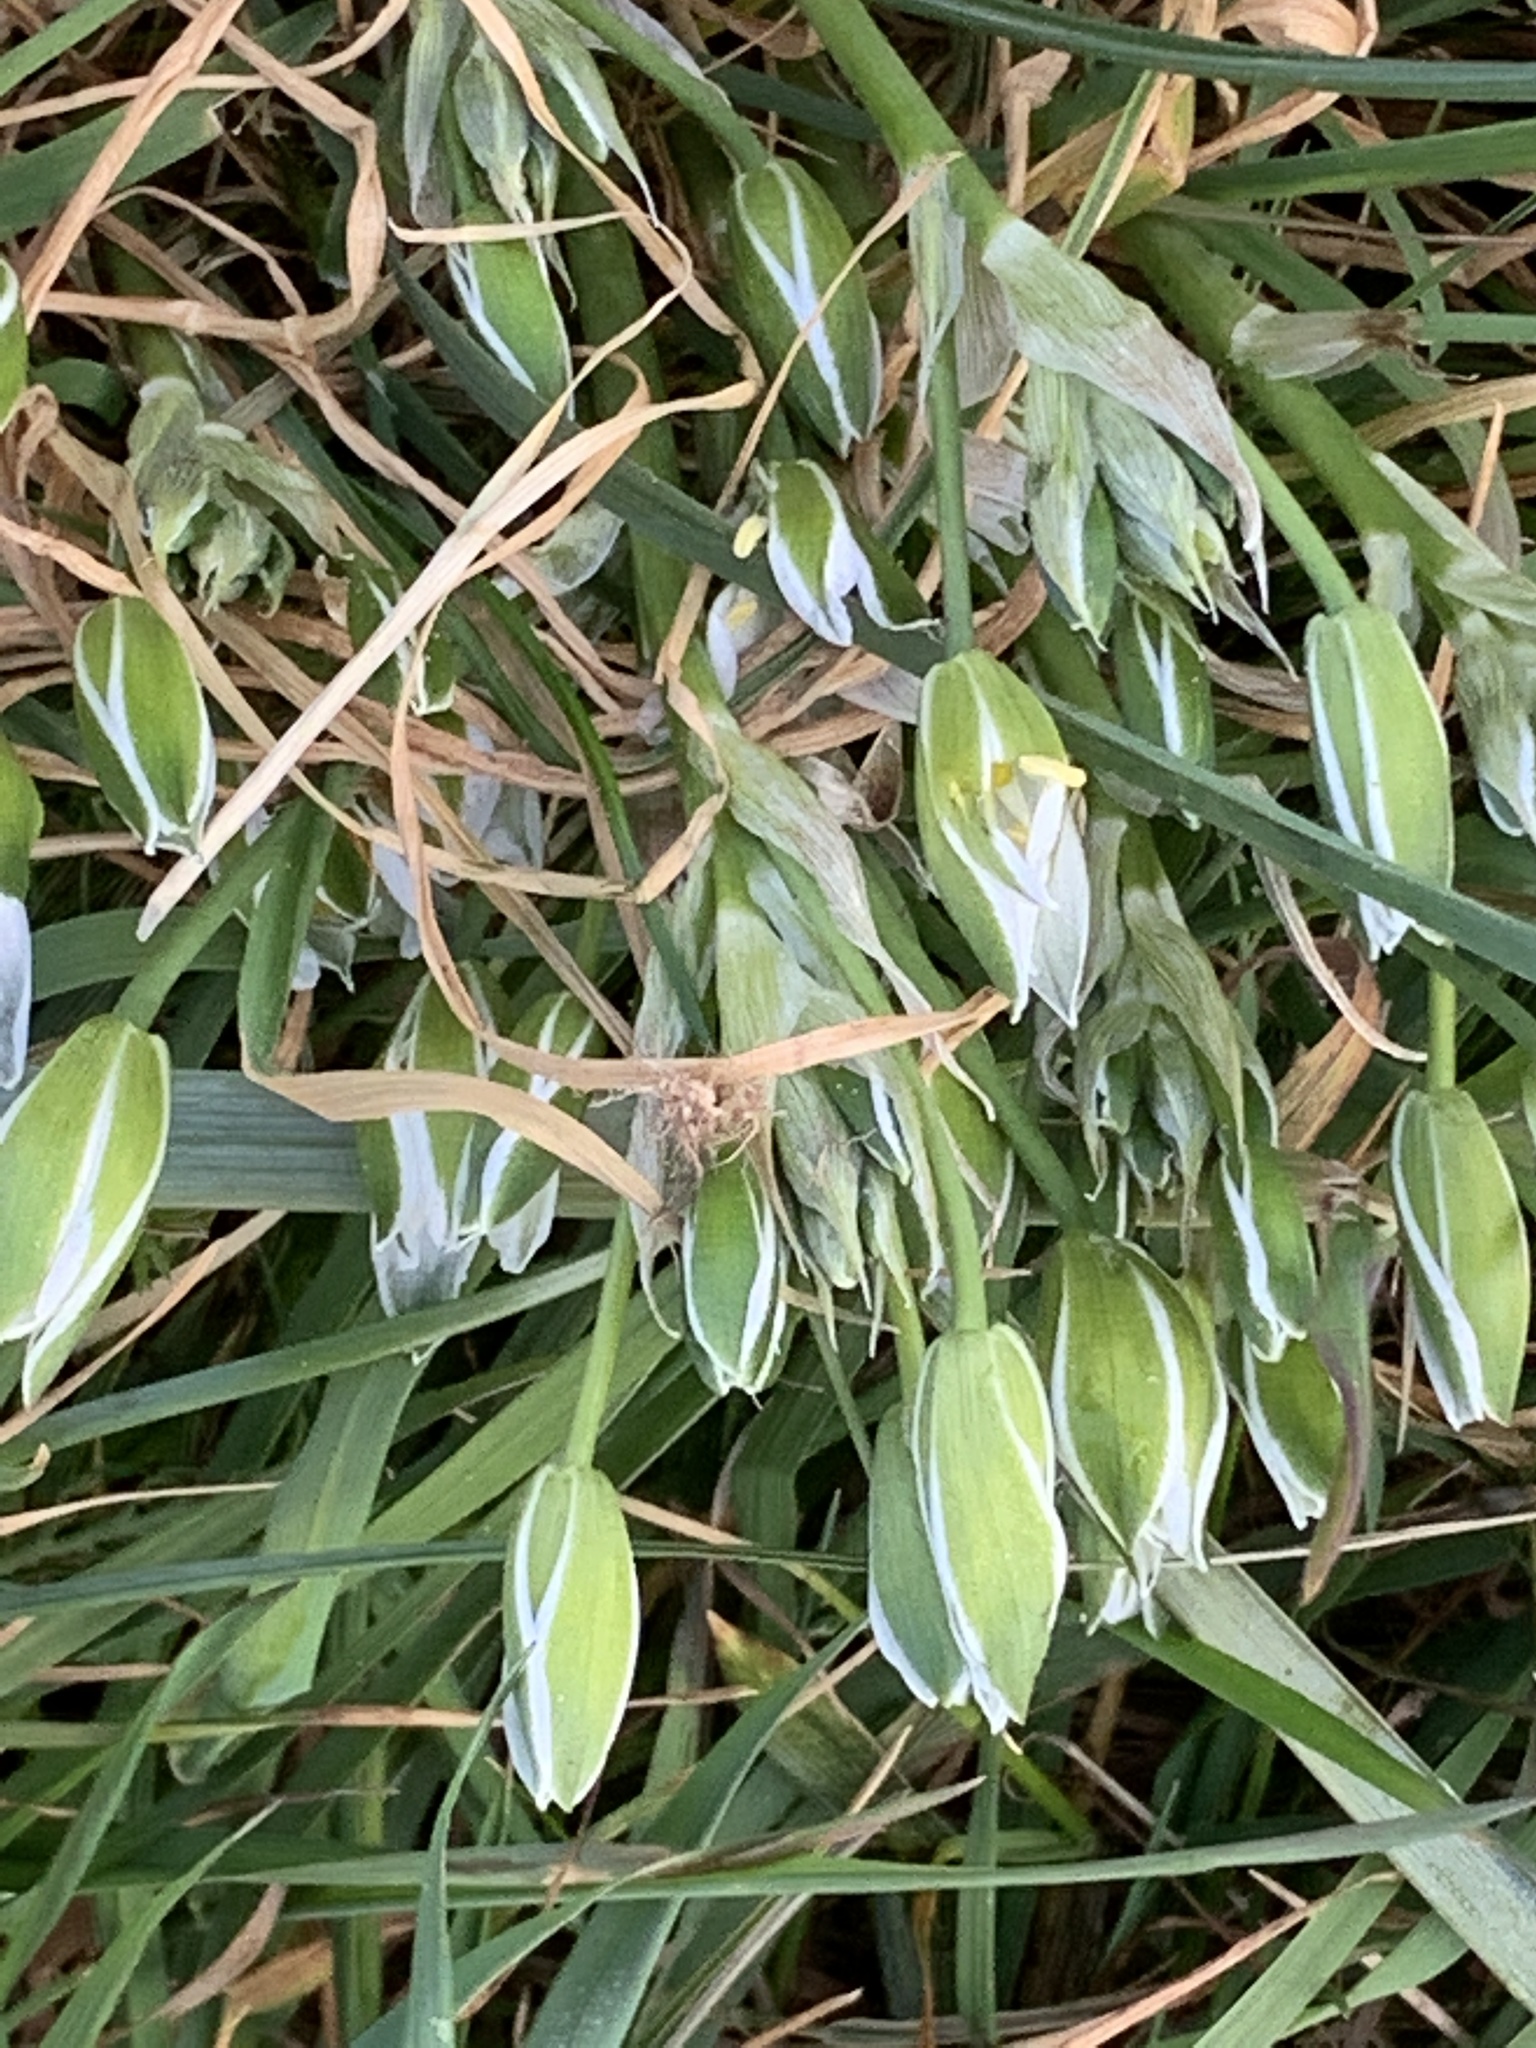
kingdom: Plantae
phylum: Tracheophyta
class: Liliopsida
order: Asparagales
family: Asparagaceae
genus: Ornithogalum
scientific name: Ornithogalum umbellatum
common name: Garden star-of-bethlehem
